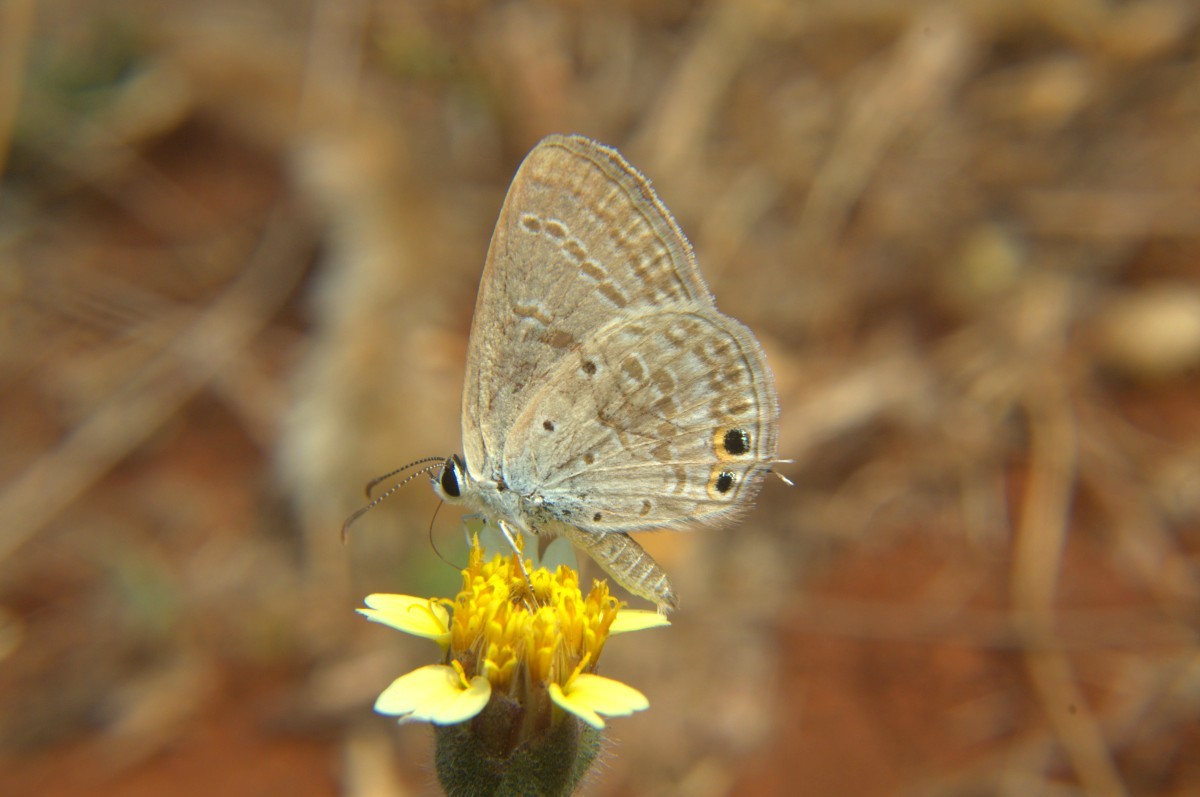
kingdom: Animalia
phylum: Arthropoda
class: Insecta
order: Lepidoptera
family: Lycaenidae
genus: Euchrysops
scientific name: Euchrysops cnejus
